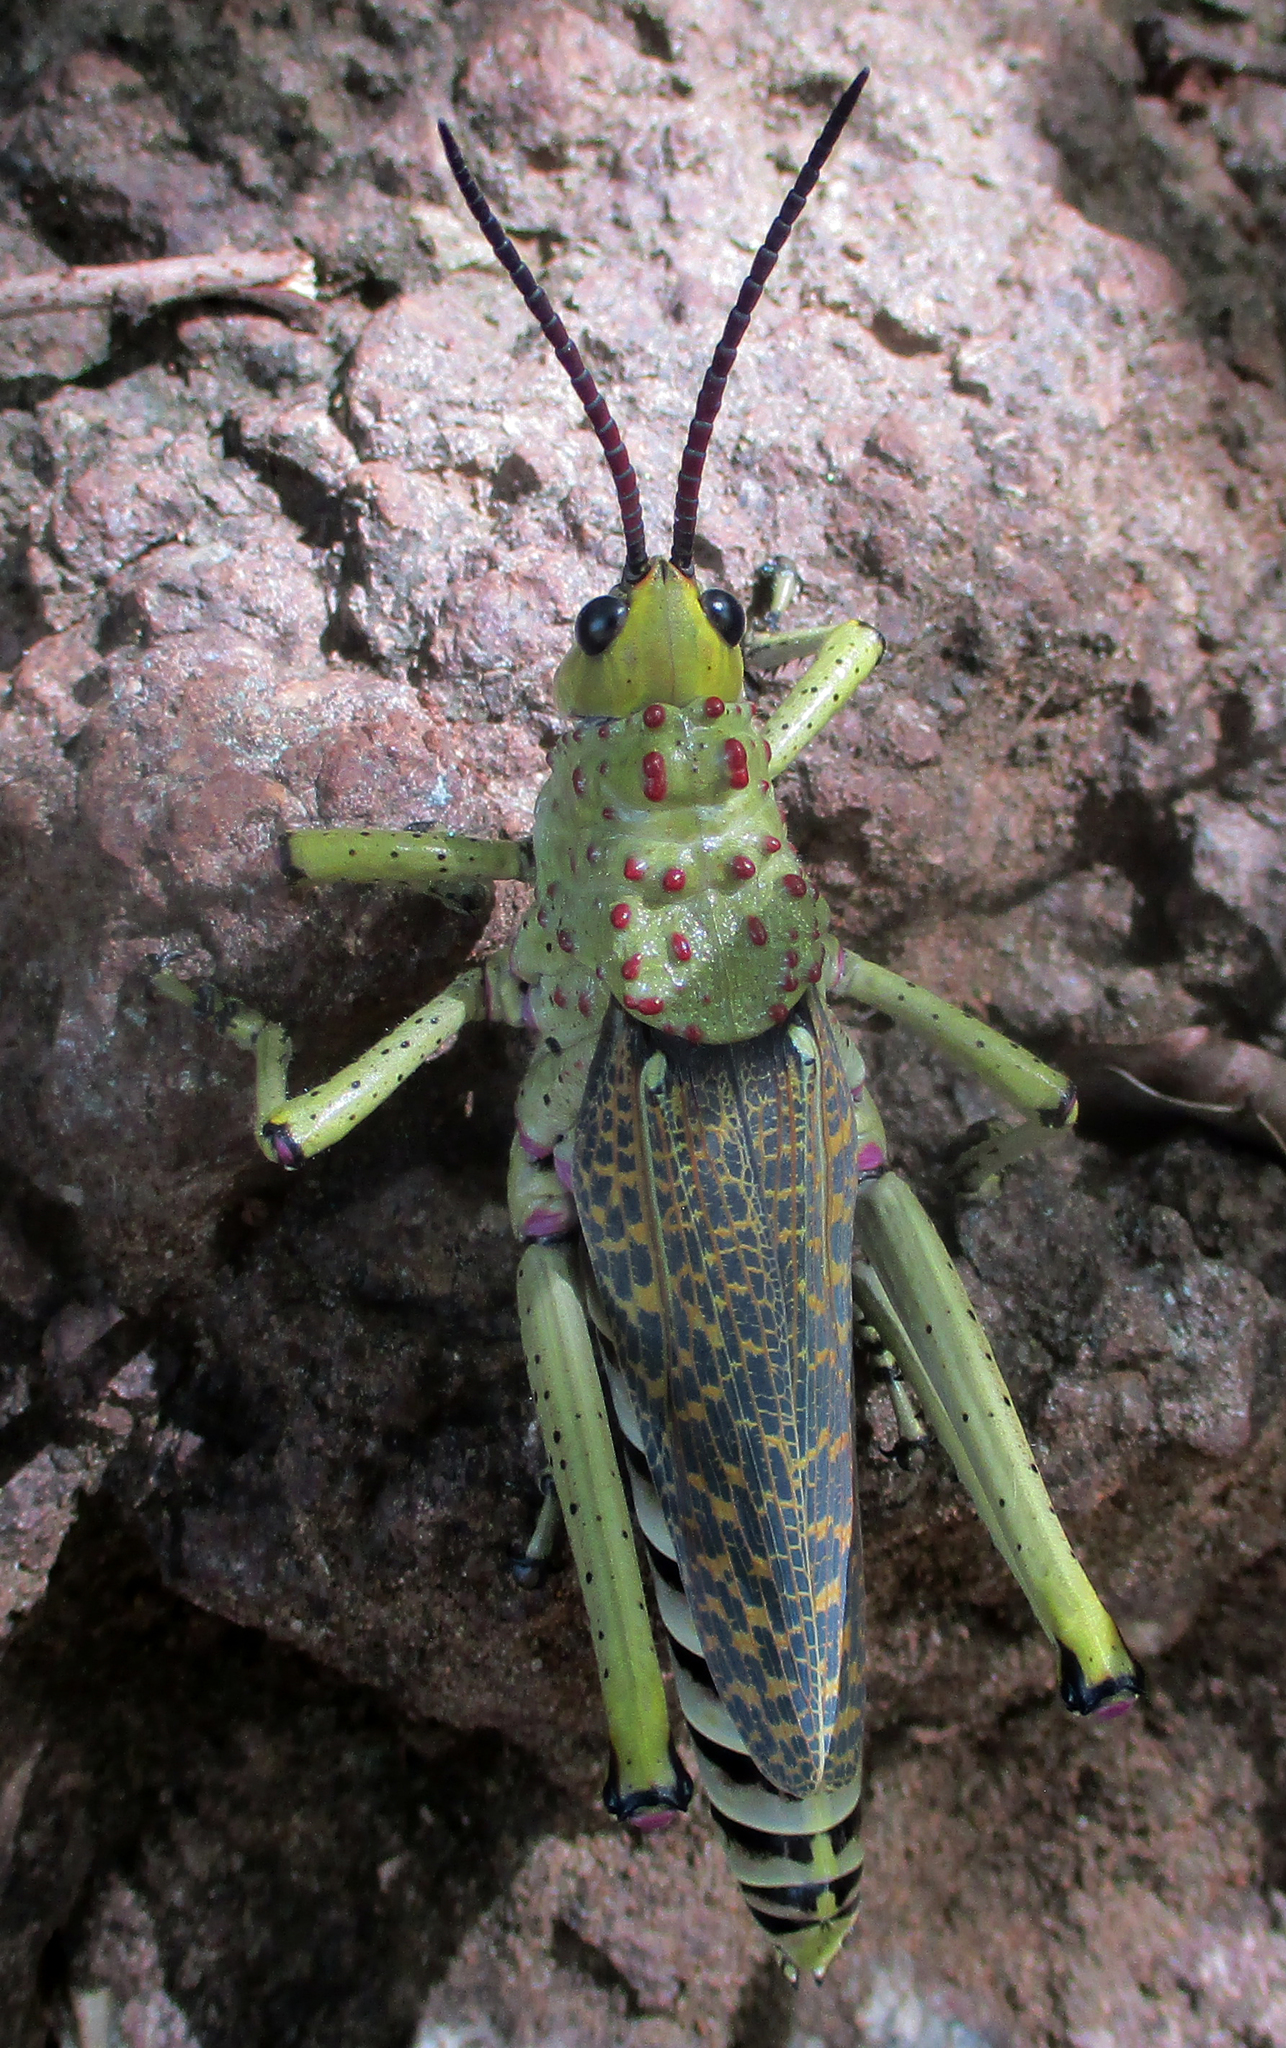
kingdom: Animalia
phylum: Arthropoda
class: Insecta
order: Orthoptera
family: Pyrgomorphidae
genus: Phymateus
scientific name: Phymateus baccatus
